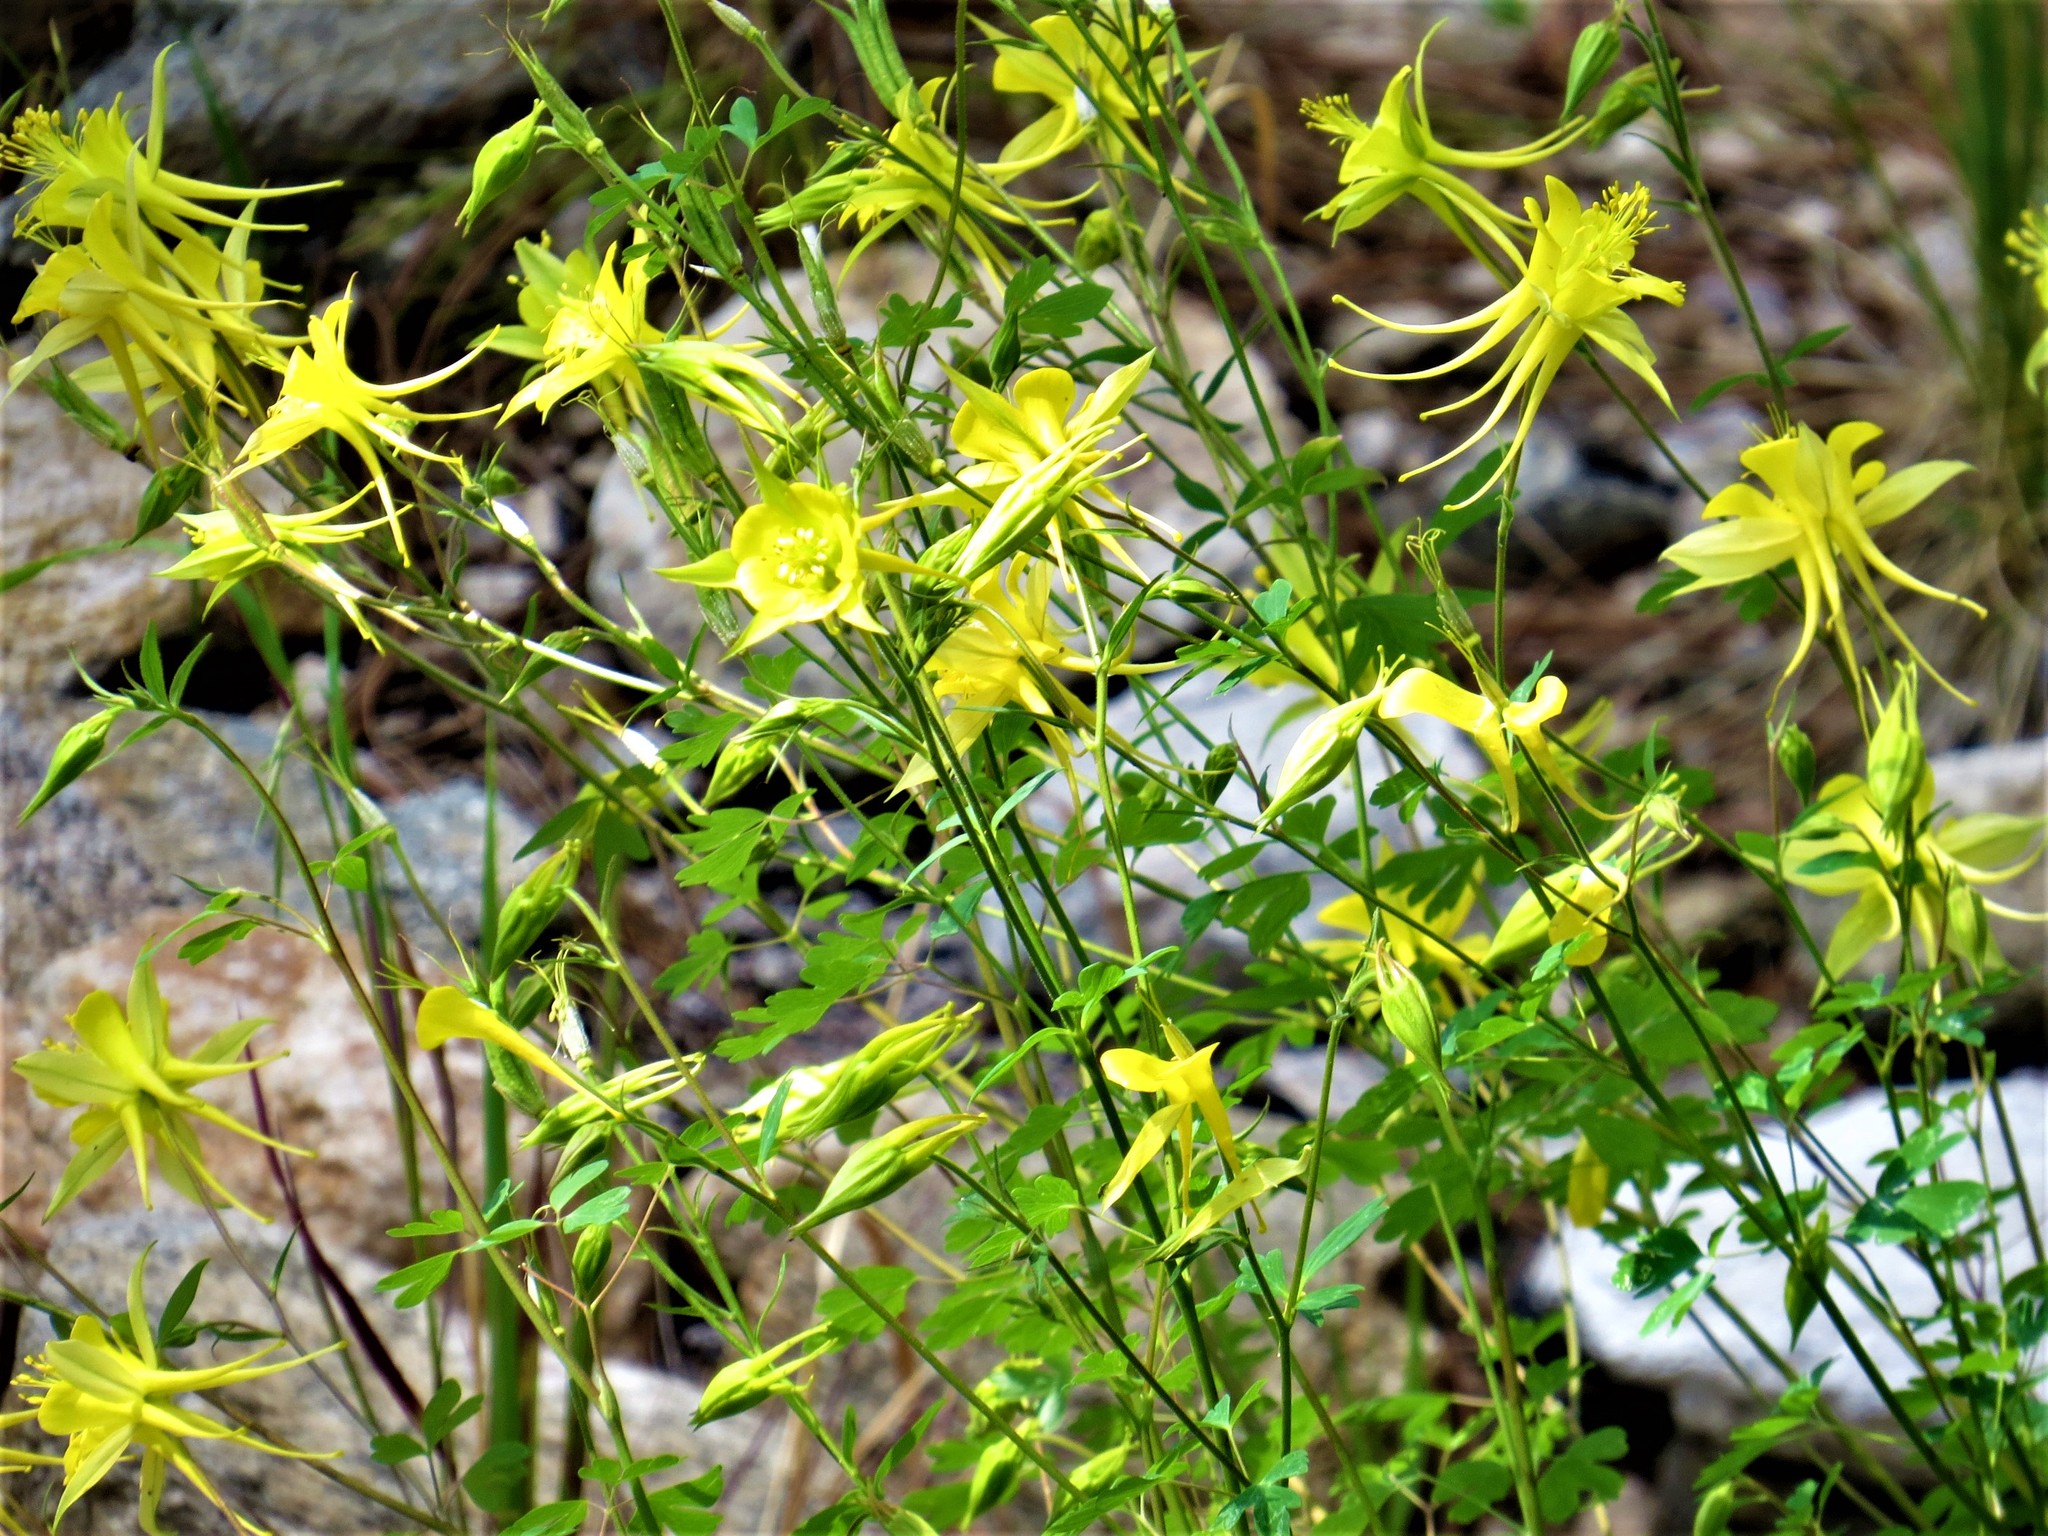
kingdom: Plantae
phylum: Tracheophyta
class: Magnoliopsida
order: Ranunculales
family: Ranunculaceae
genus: Aquilegia
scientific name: Aquilegia chrysantha
